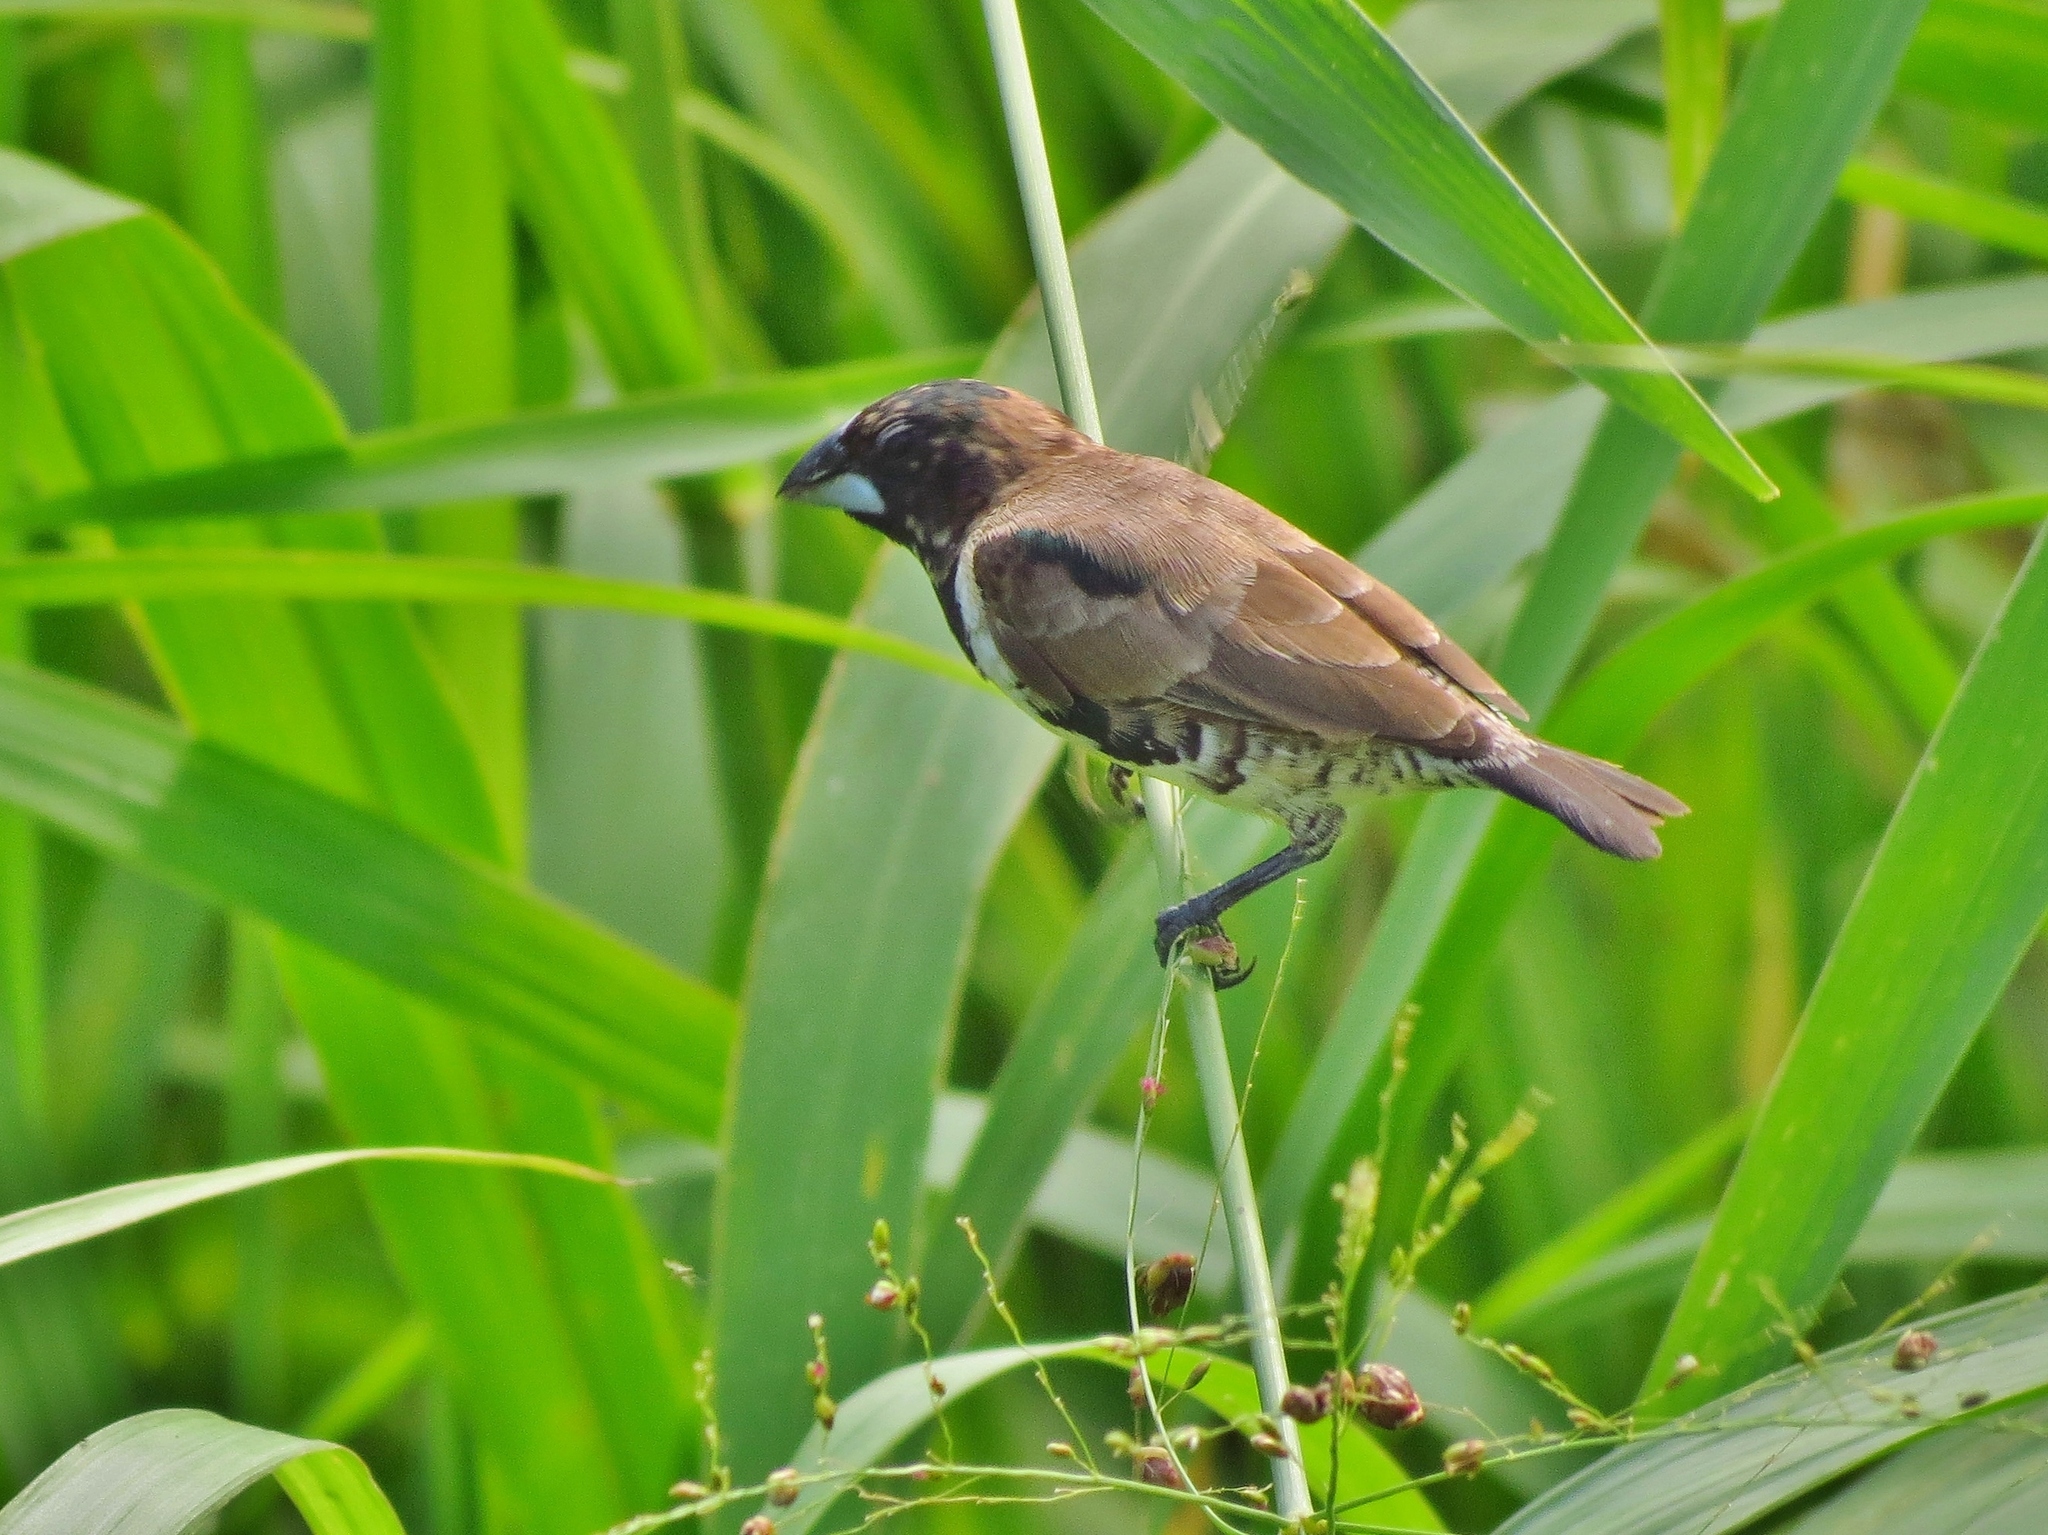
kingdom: Animalia
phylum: Chordata
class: Aves
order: Passeriformes
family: Estrildidae
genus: Lonchura
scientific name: Lonchura cucullata
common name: Bronze mannikin
